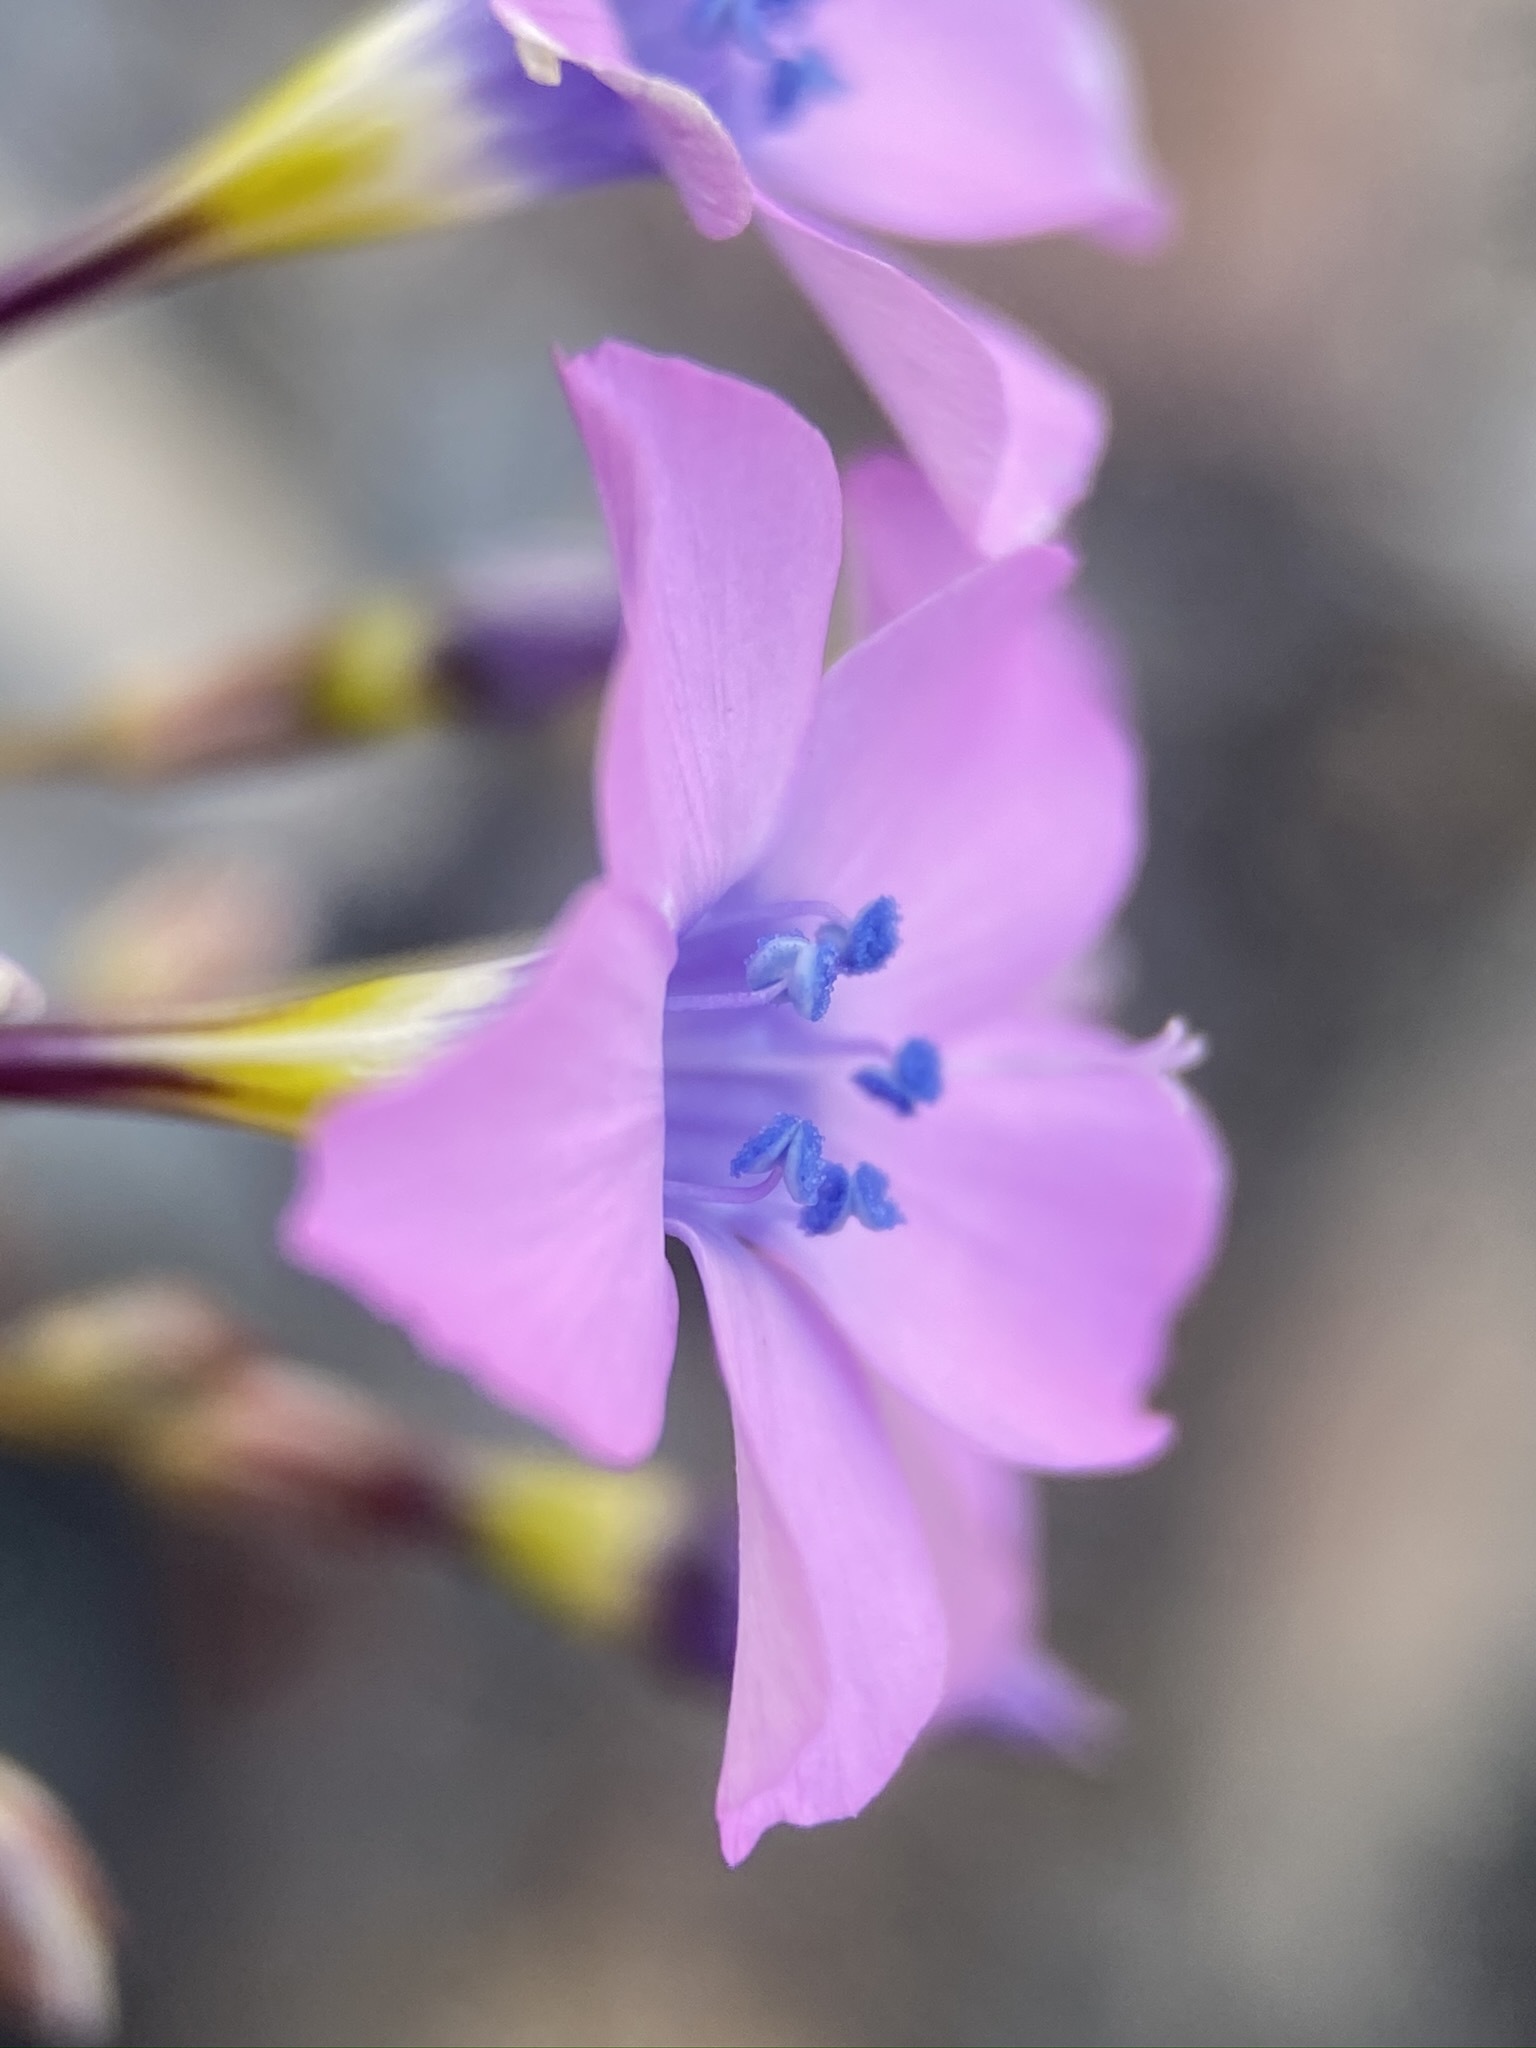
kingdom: Plantae
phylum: Tracheophyta
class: Magnoliopsida
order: Ericales
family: Polemoniaceae
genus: Gilia
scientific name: Gilia cana
